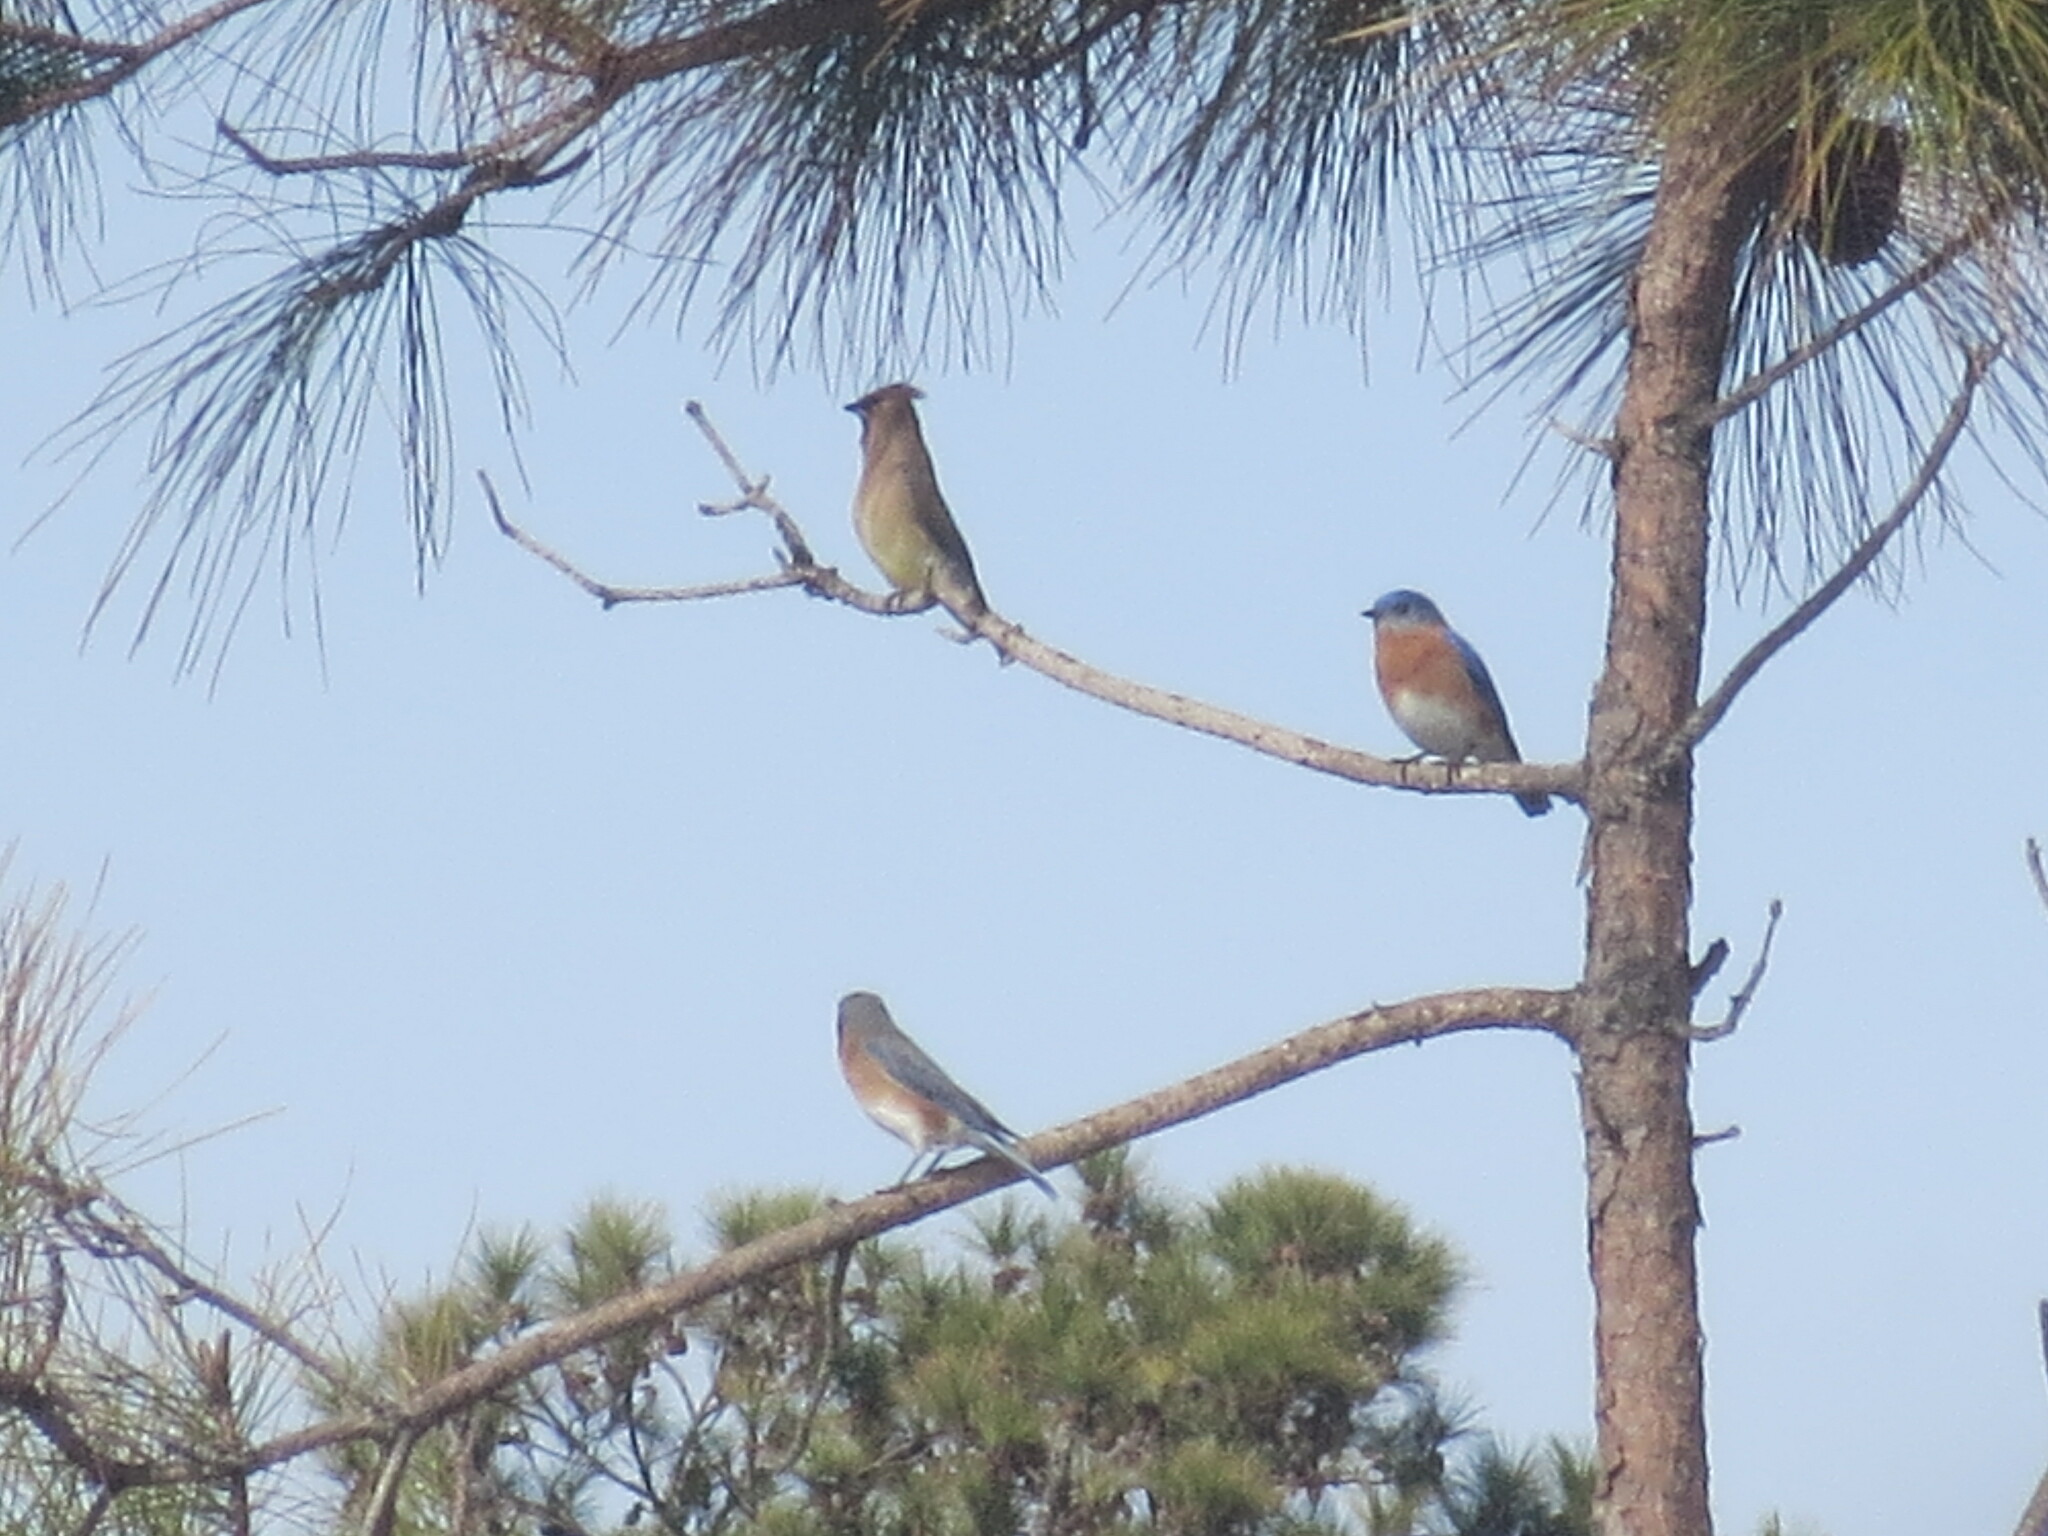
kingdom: Animalia
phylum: Chordata
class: Aves
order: Passeriformes
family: Turdidae
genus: Sialia
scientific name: Sialia sialis
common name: Eastern bluebird
